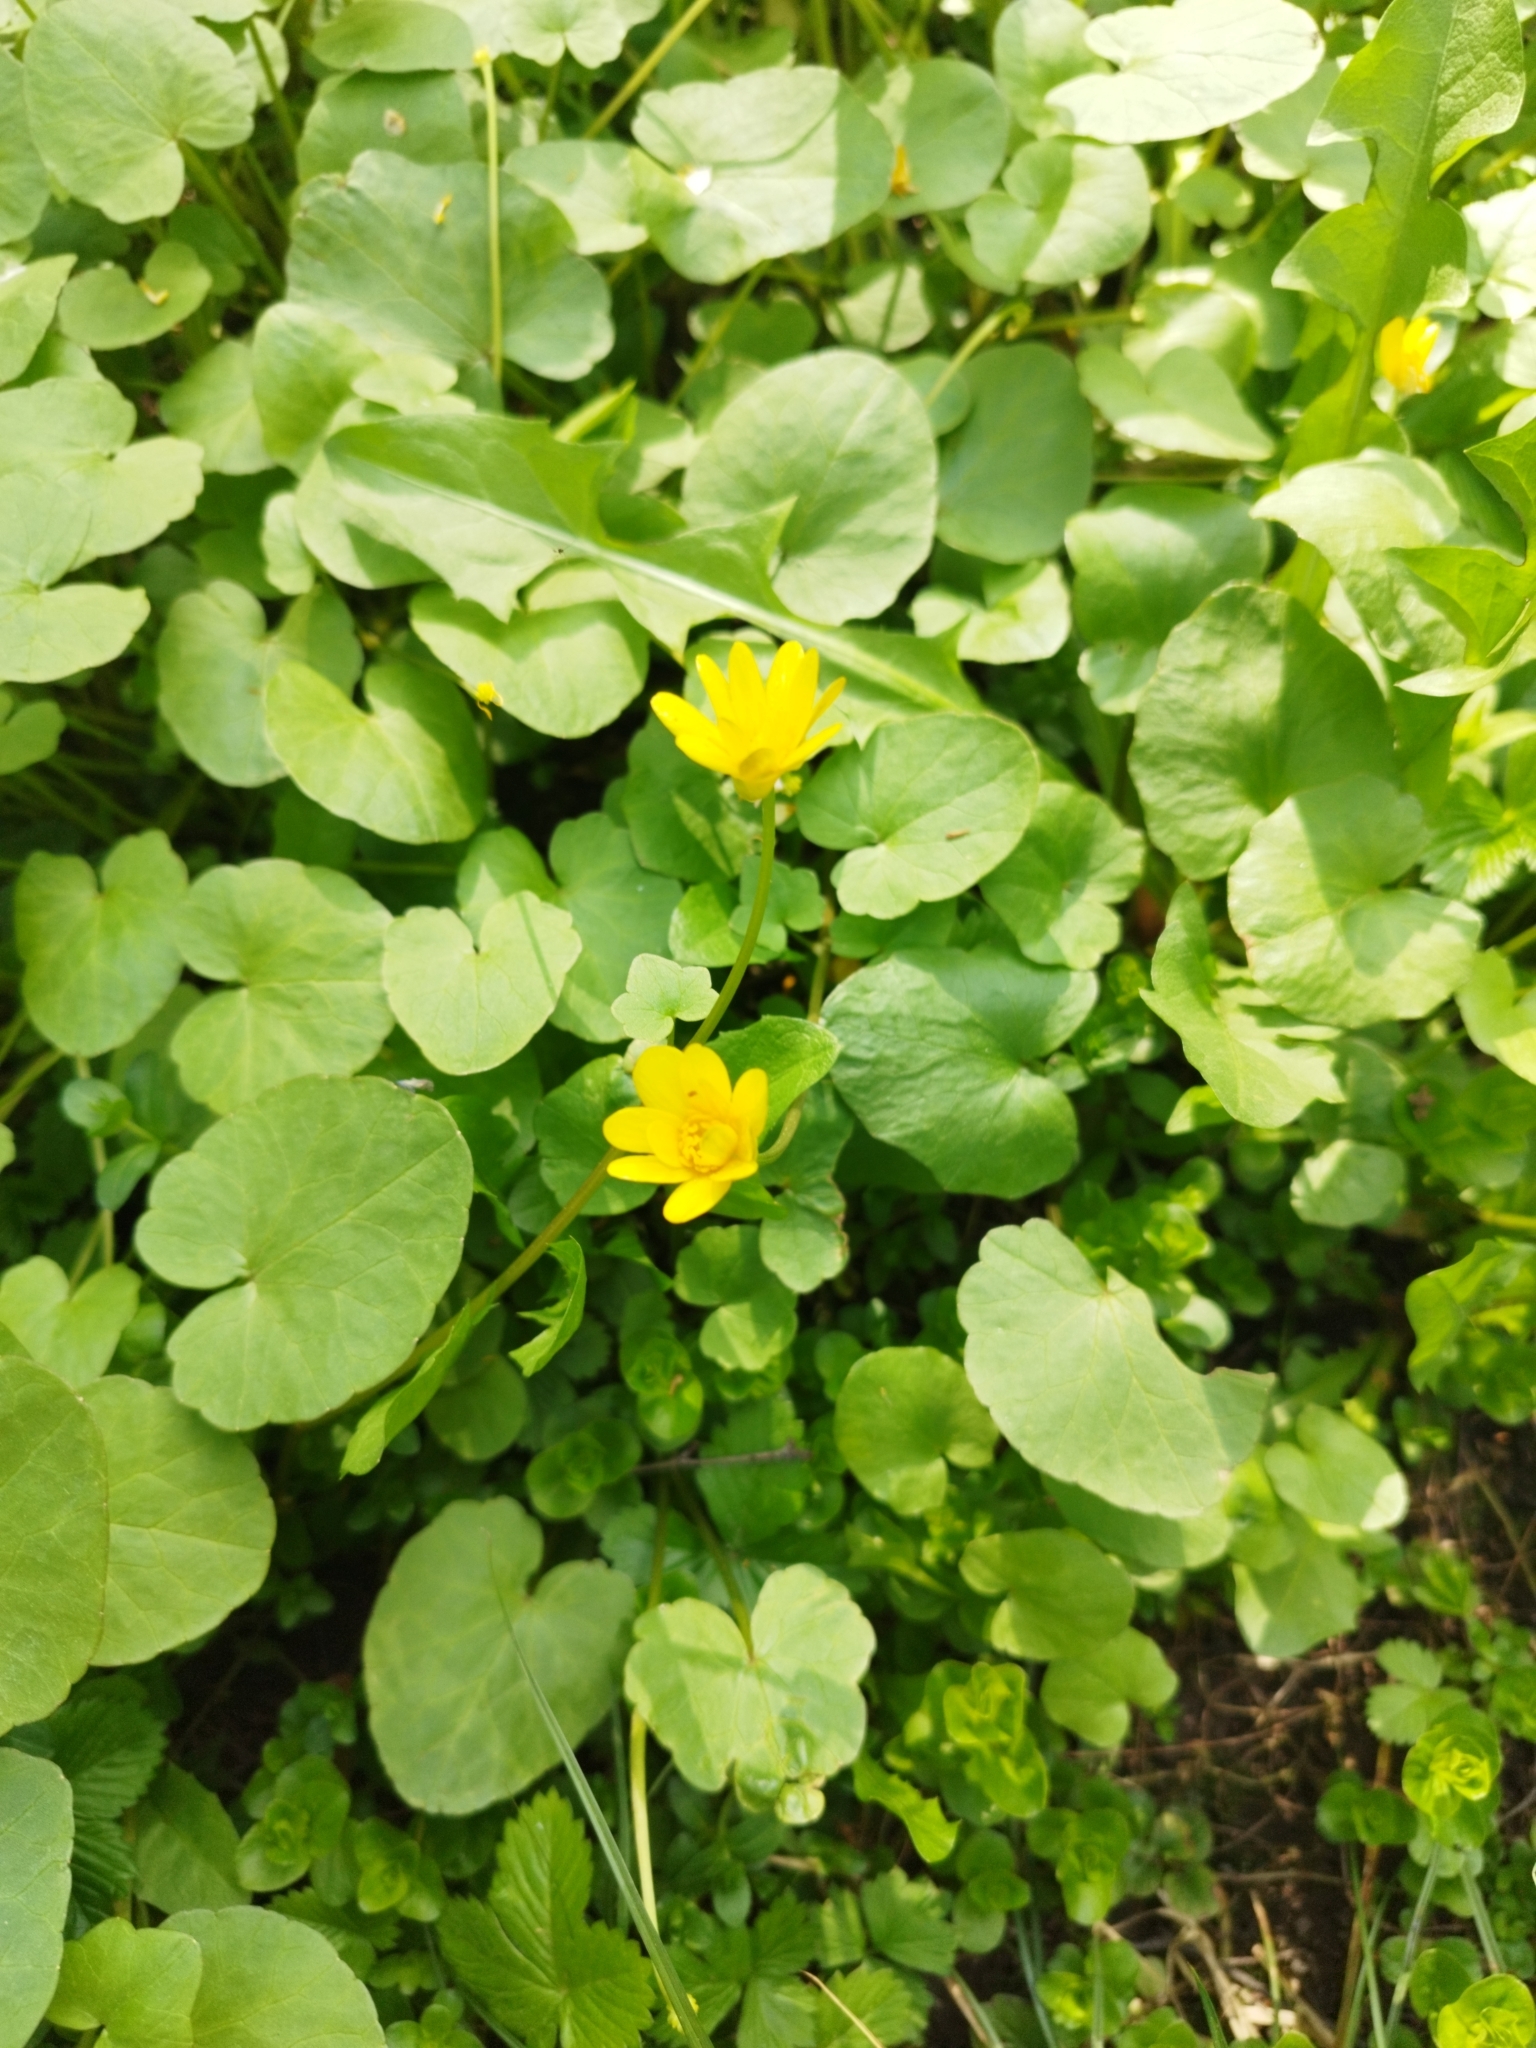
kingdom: Plantae
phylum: Tracheophyta
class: Magnoliopsida
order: Ranunculales
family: Ranunculaceae
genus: Ficaria
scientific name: Ficaria verna
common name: Lesser celandine
